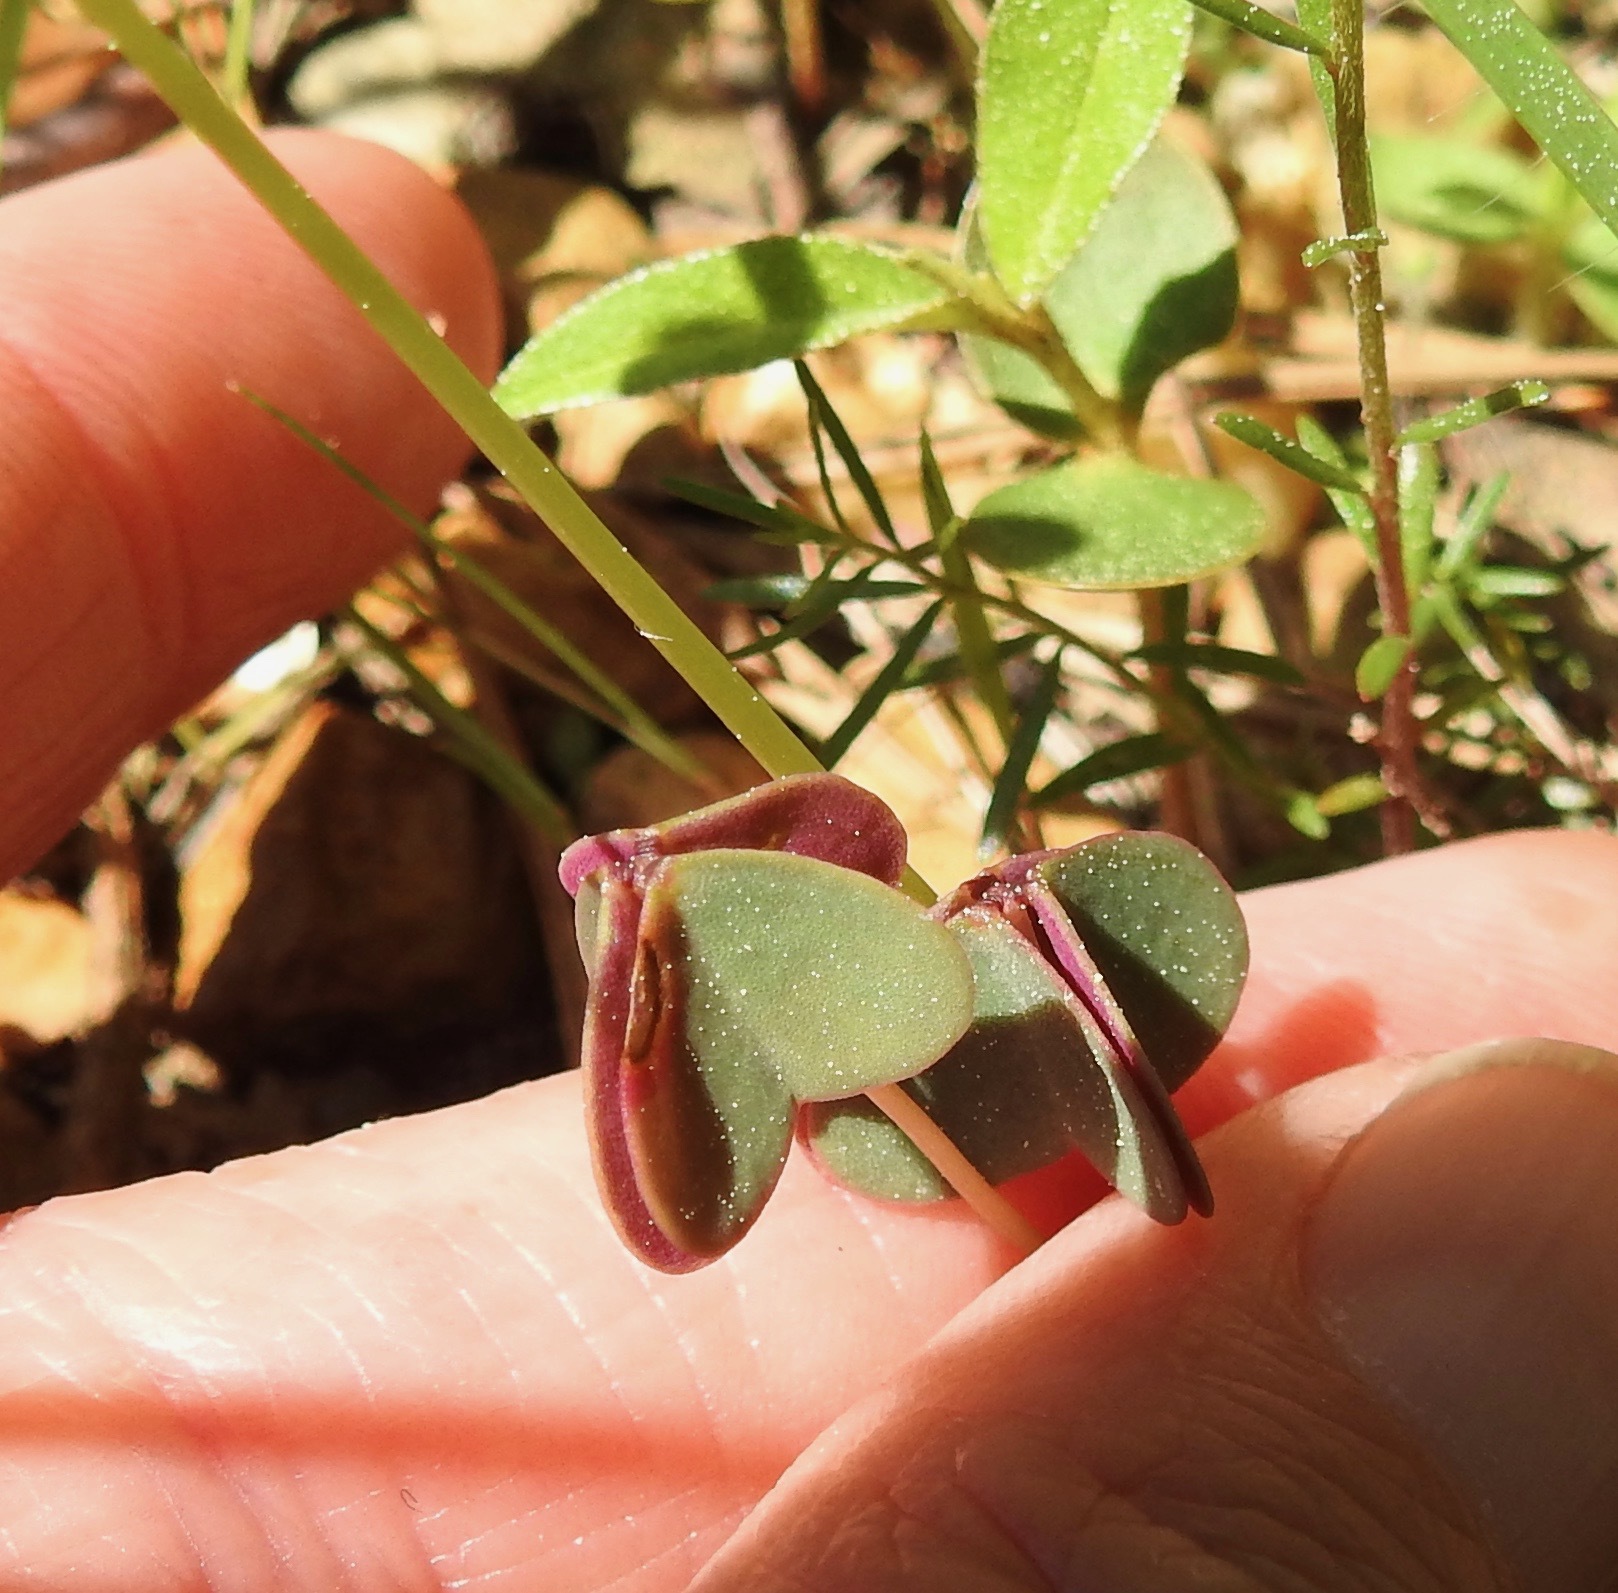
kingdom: Plantae
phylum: Tracheophyta
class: Magnoliopsida
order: Oxalidales
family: Oxalidaceae
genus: Oxalis
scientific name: Oxalis violacea
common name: Violet wood-sorrel
